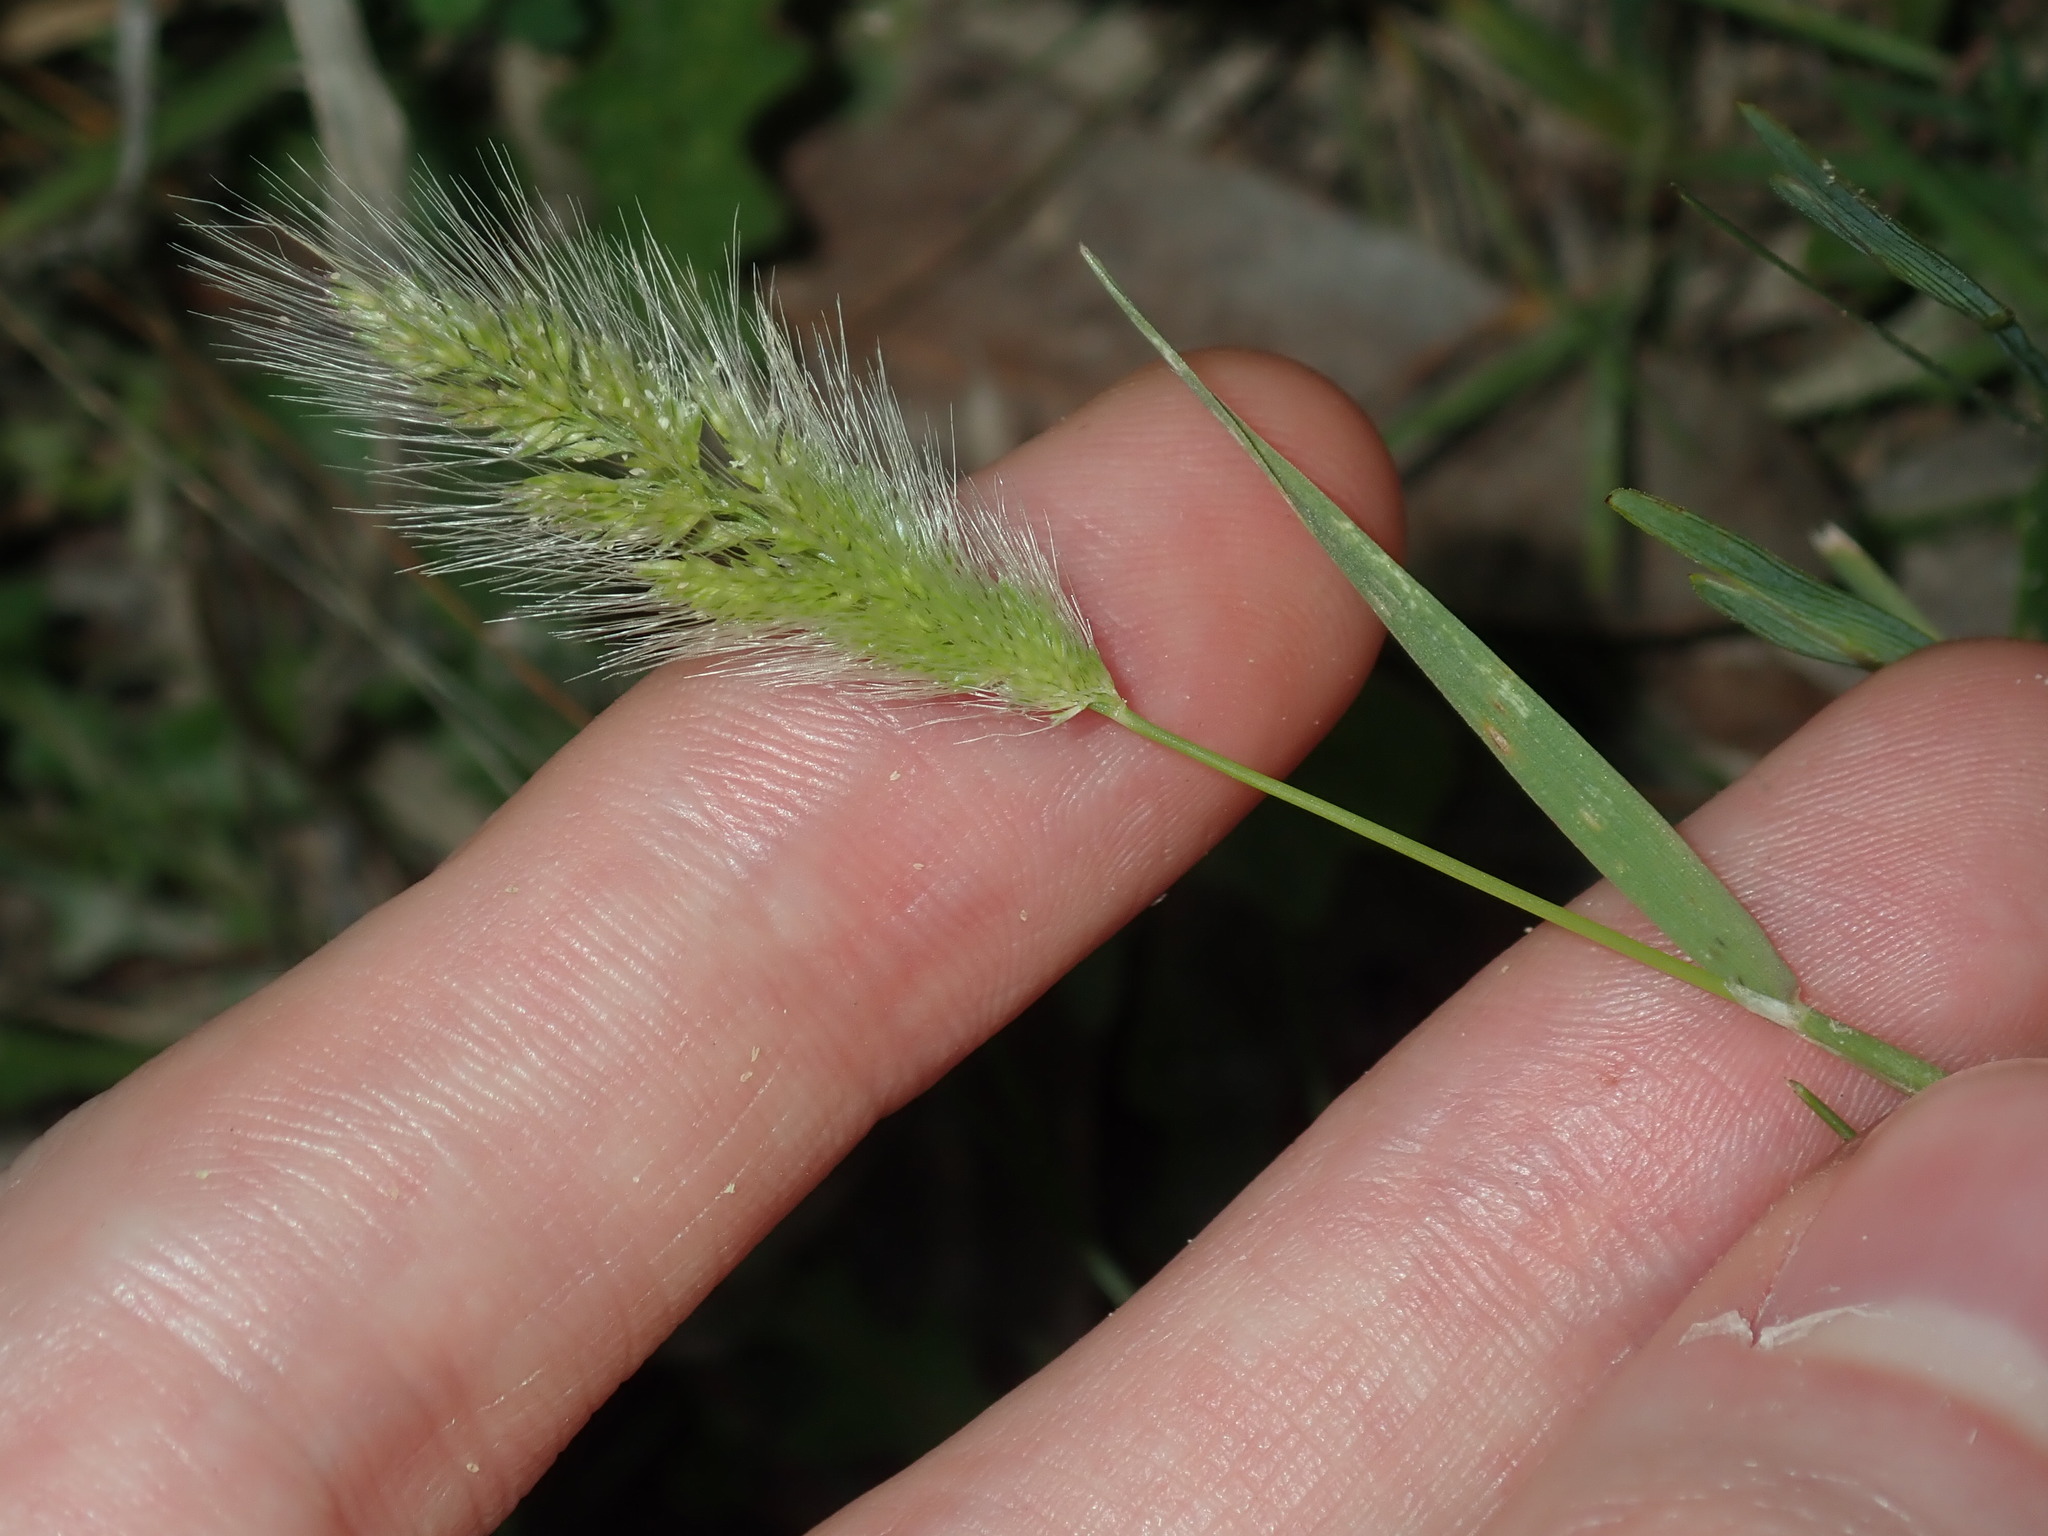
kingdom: Plantae
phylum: Tracheophyta
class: Liliopsida
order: Poales
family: Poaceae
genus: Polypogon
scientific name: Polypogon monspeliensis
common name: Annual rabbitsfoot grass
